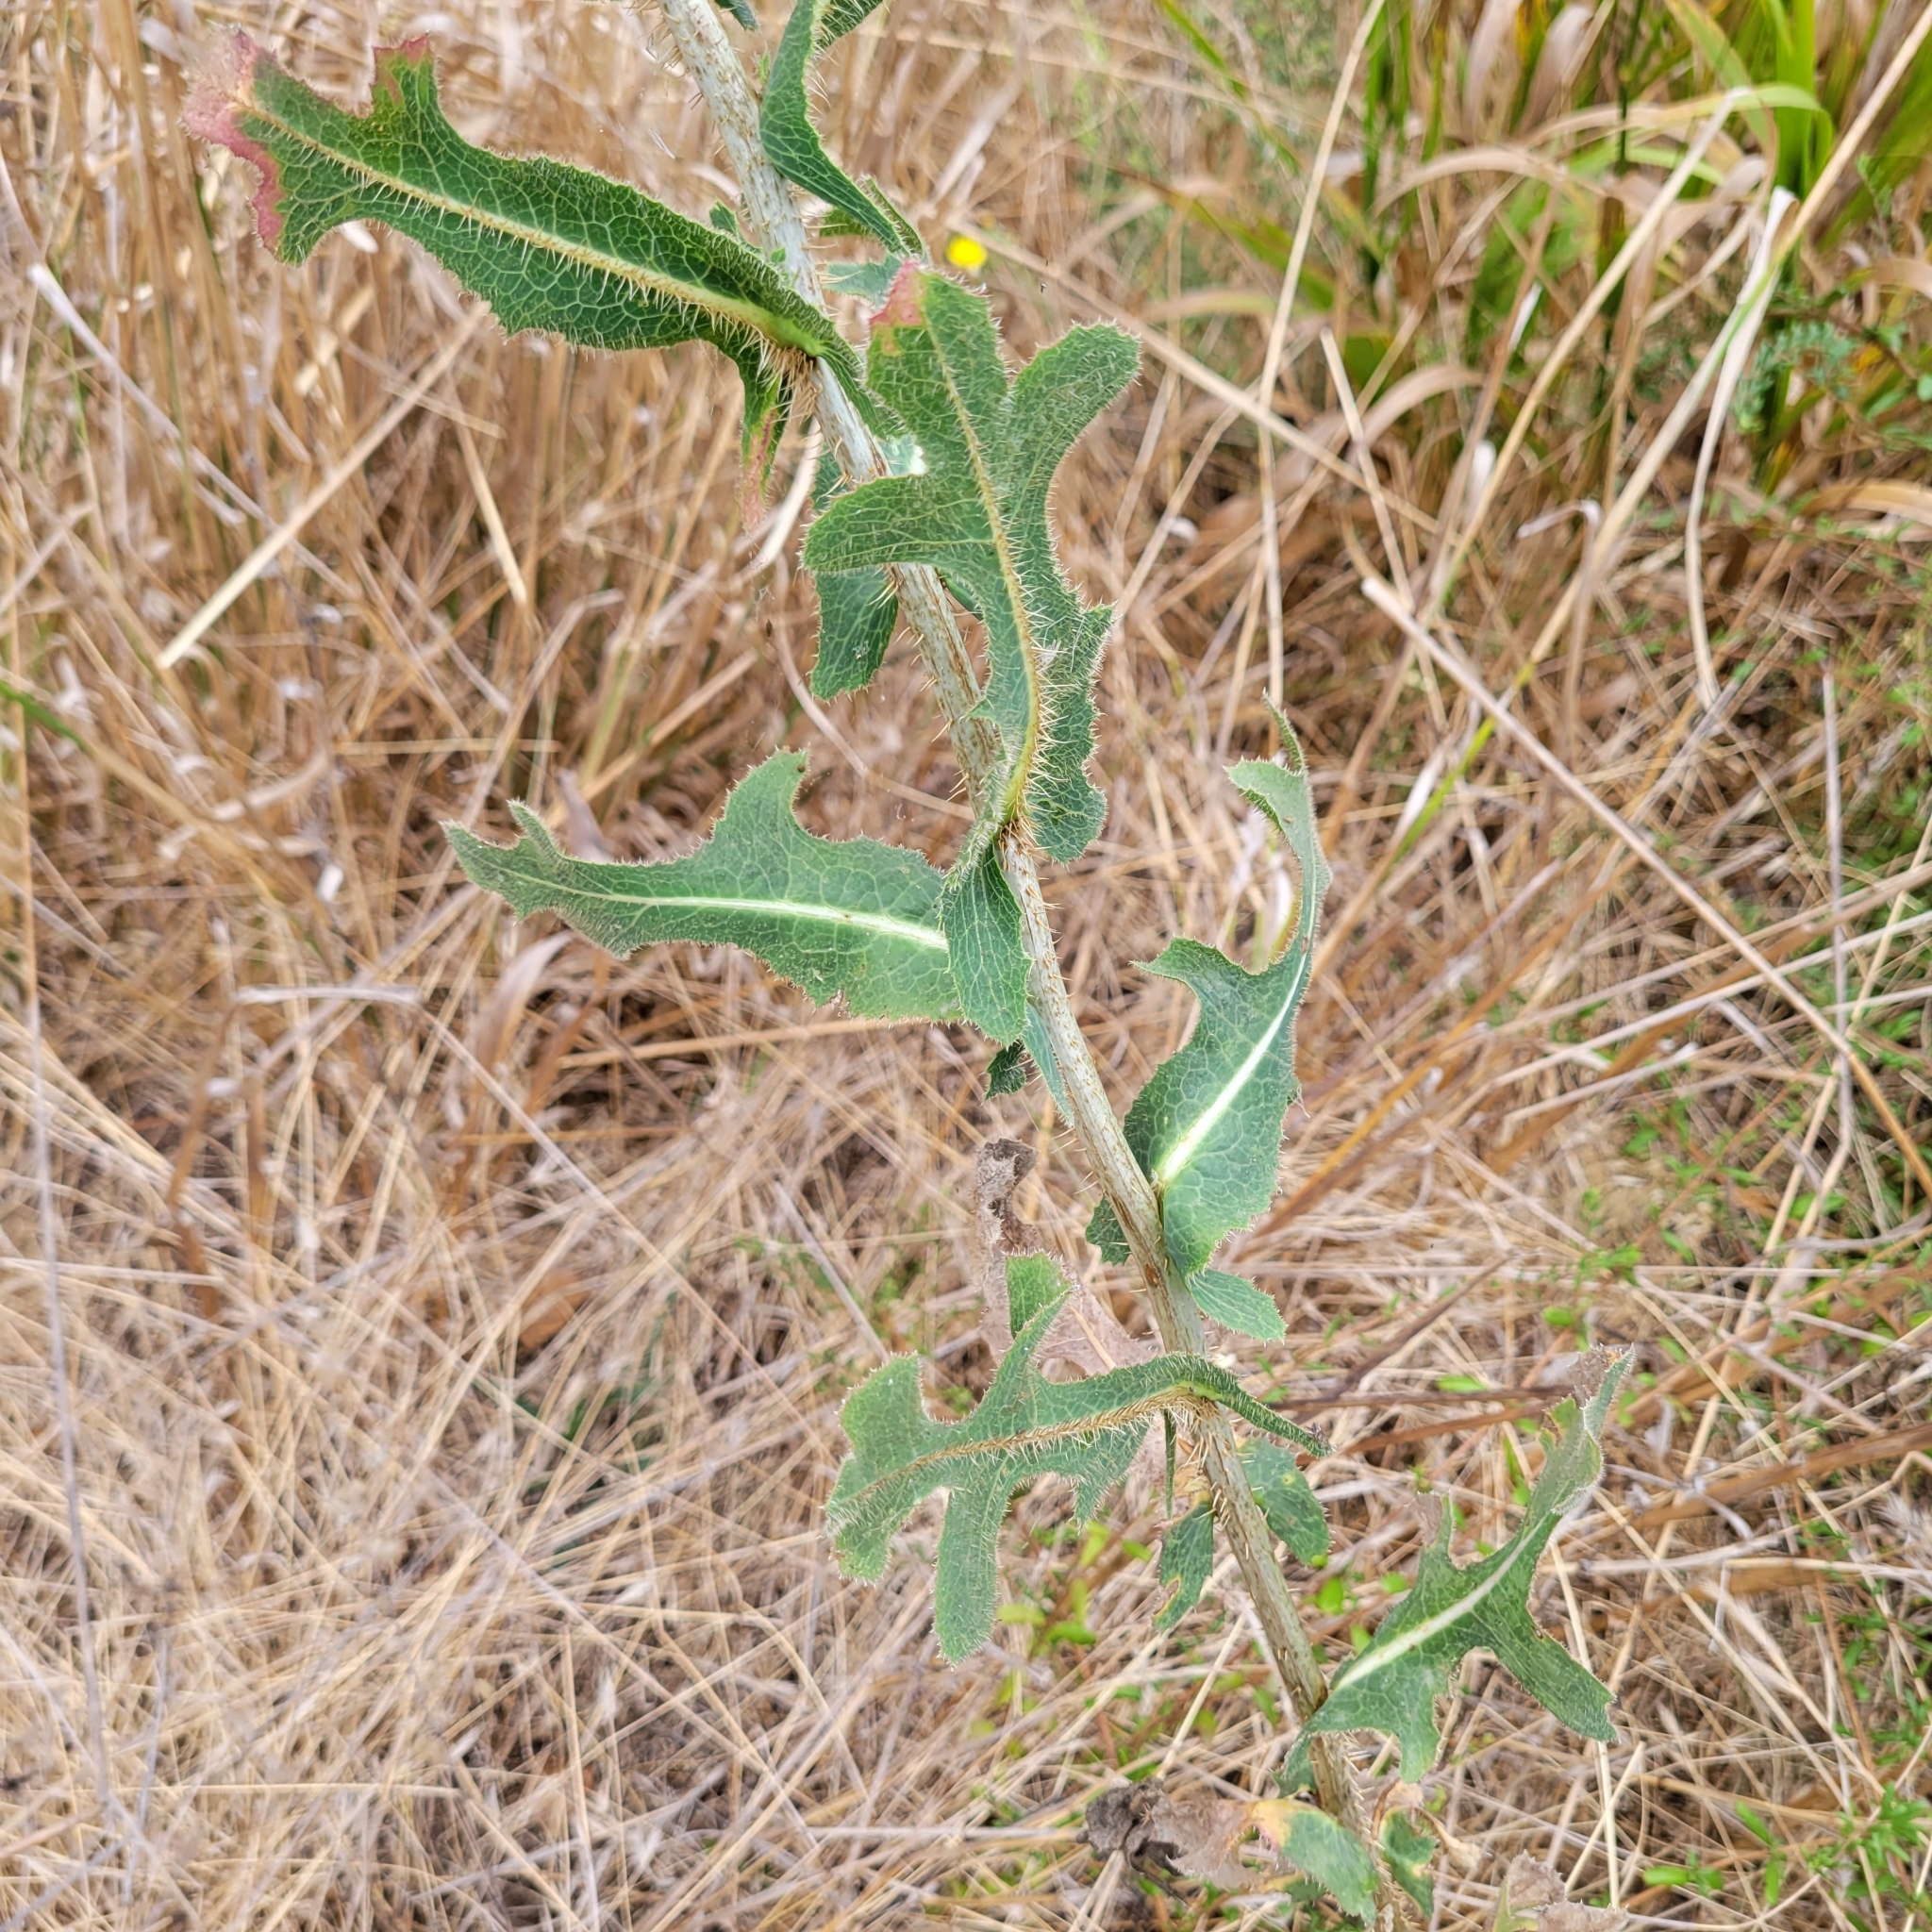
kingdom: Plantae
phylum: Tracheophyta
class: Magnoliopsida
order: Asterales
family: Asteraceae
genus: Lactuca
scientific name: Lactuca serriola
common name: Prickly lettuce
